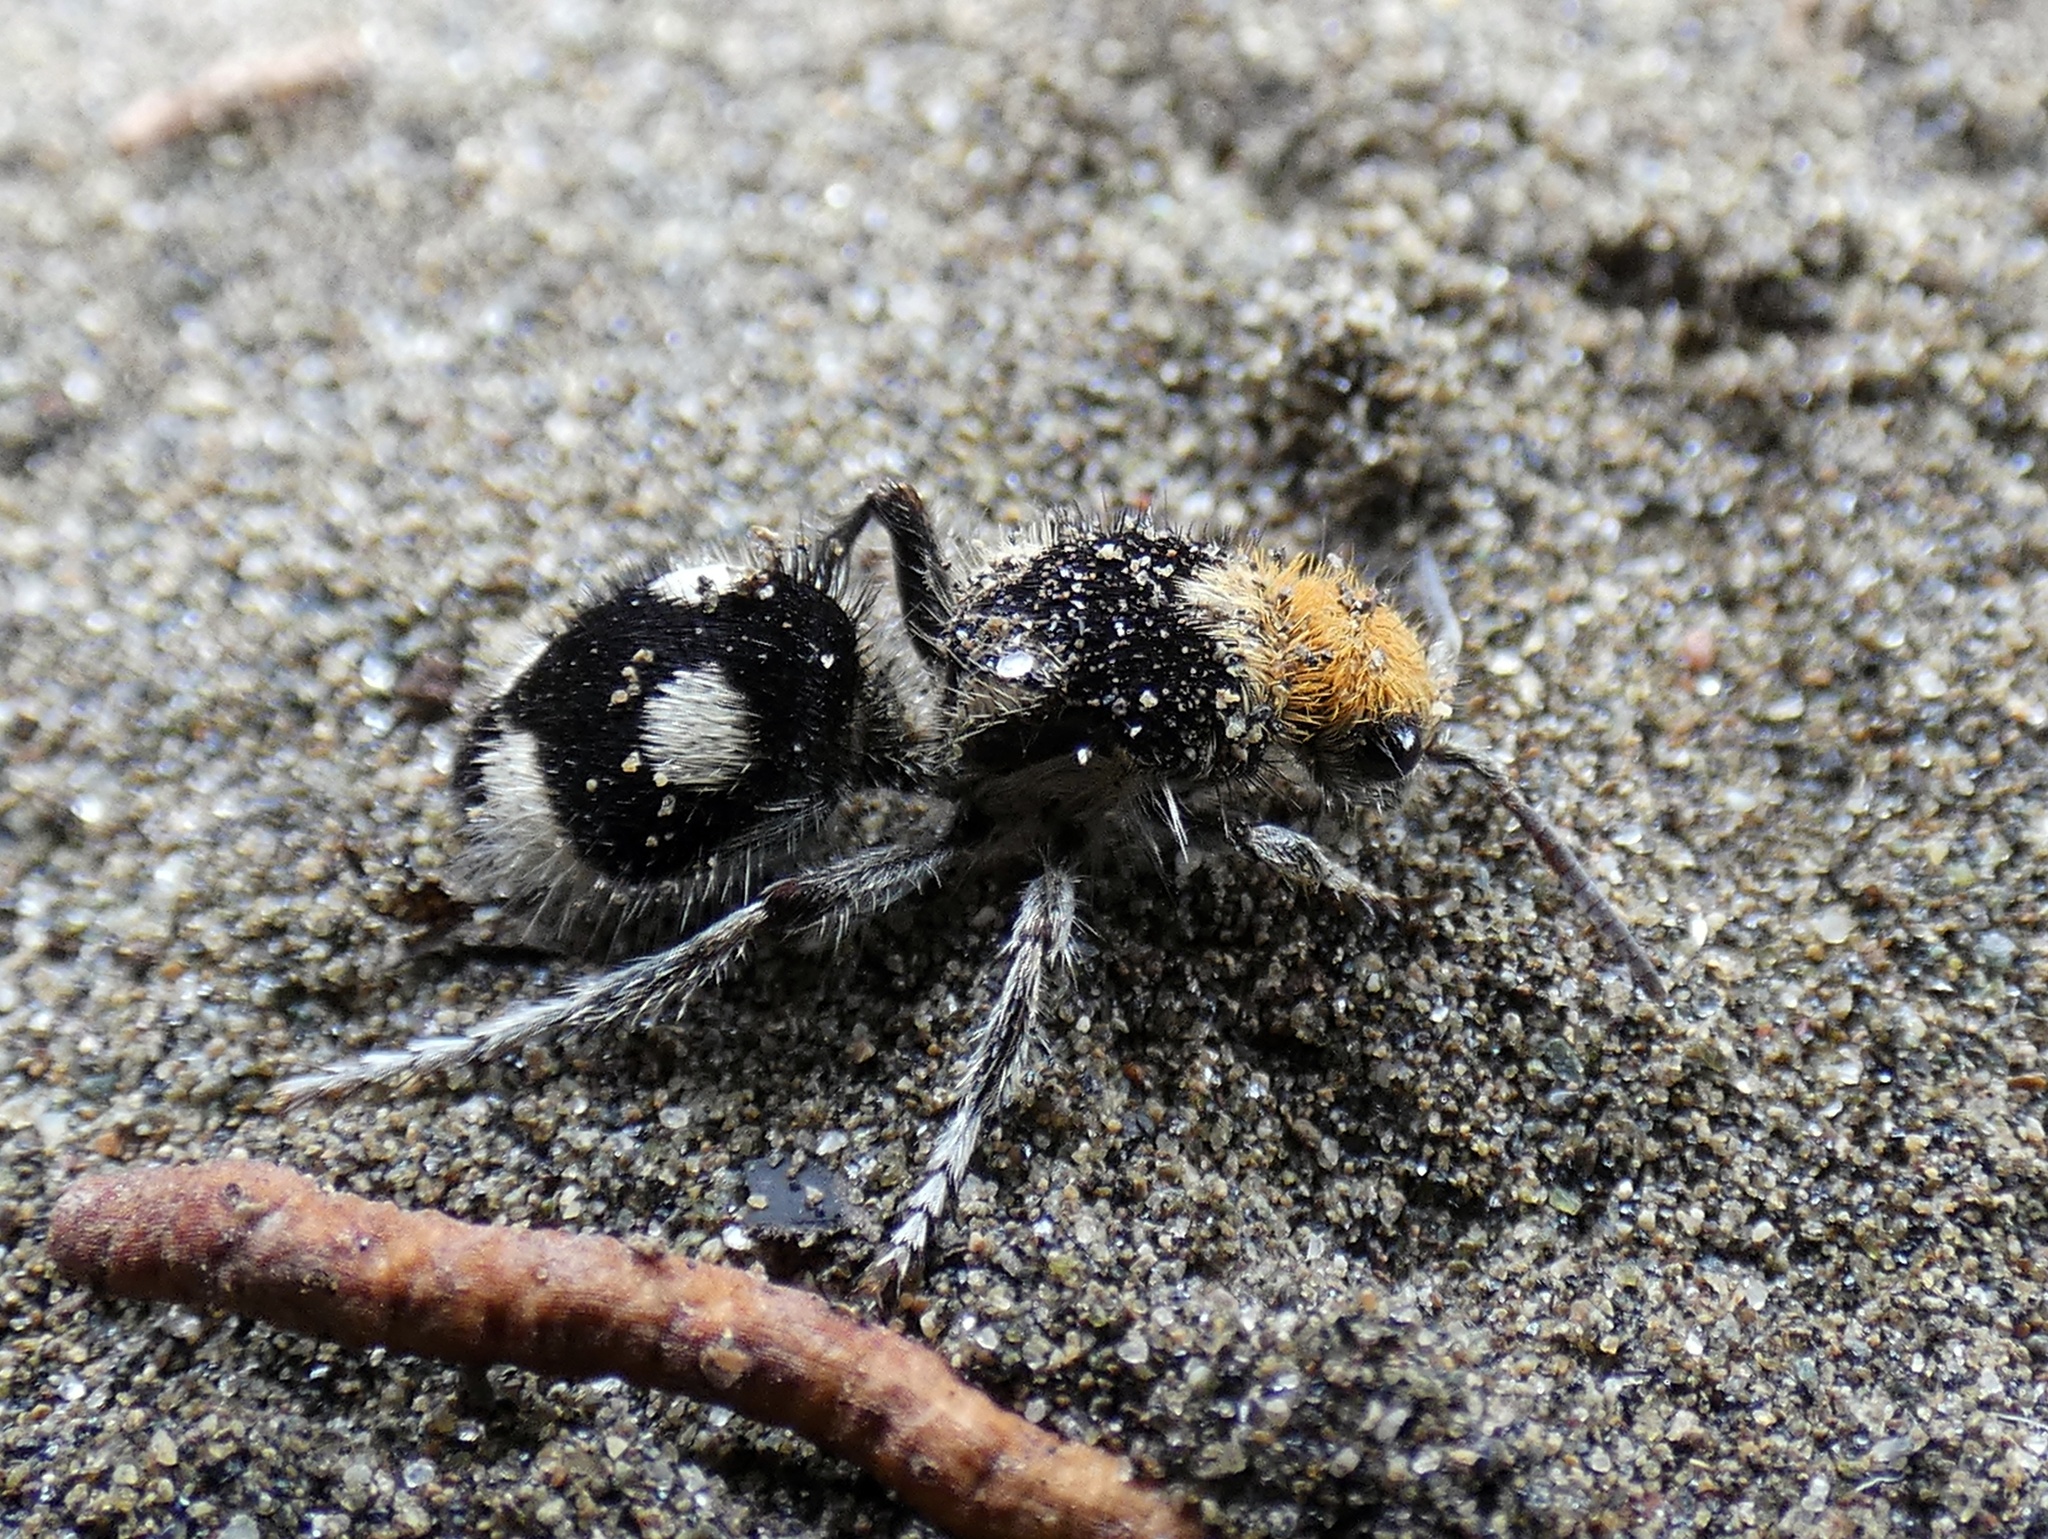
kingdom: Animalia
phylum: Arthropoda
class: Insecta
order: Hymenoptera
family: Mutillidae
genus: Dasymutilla
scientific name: Dasymutilla araneoides
